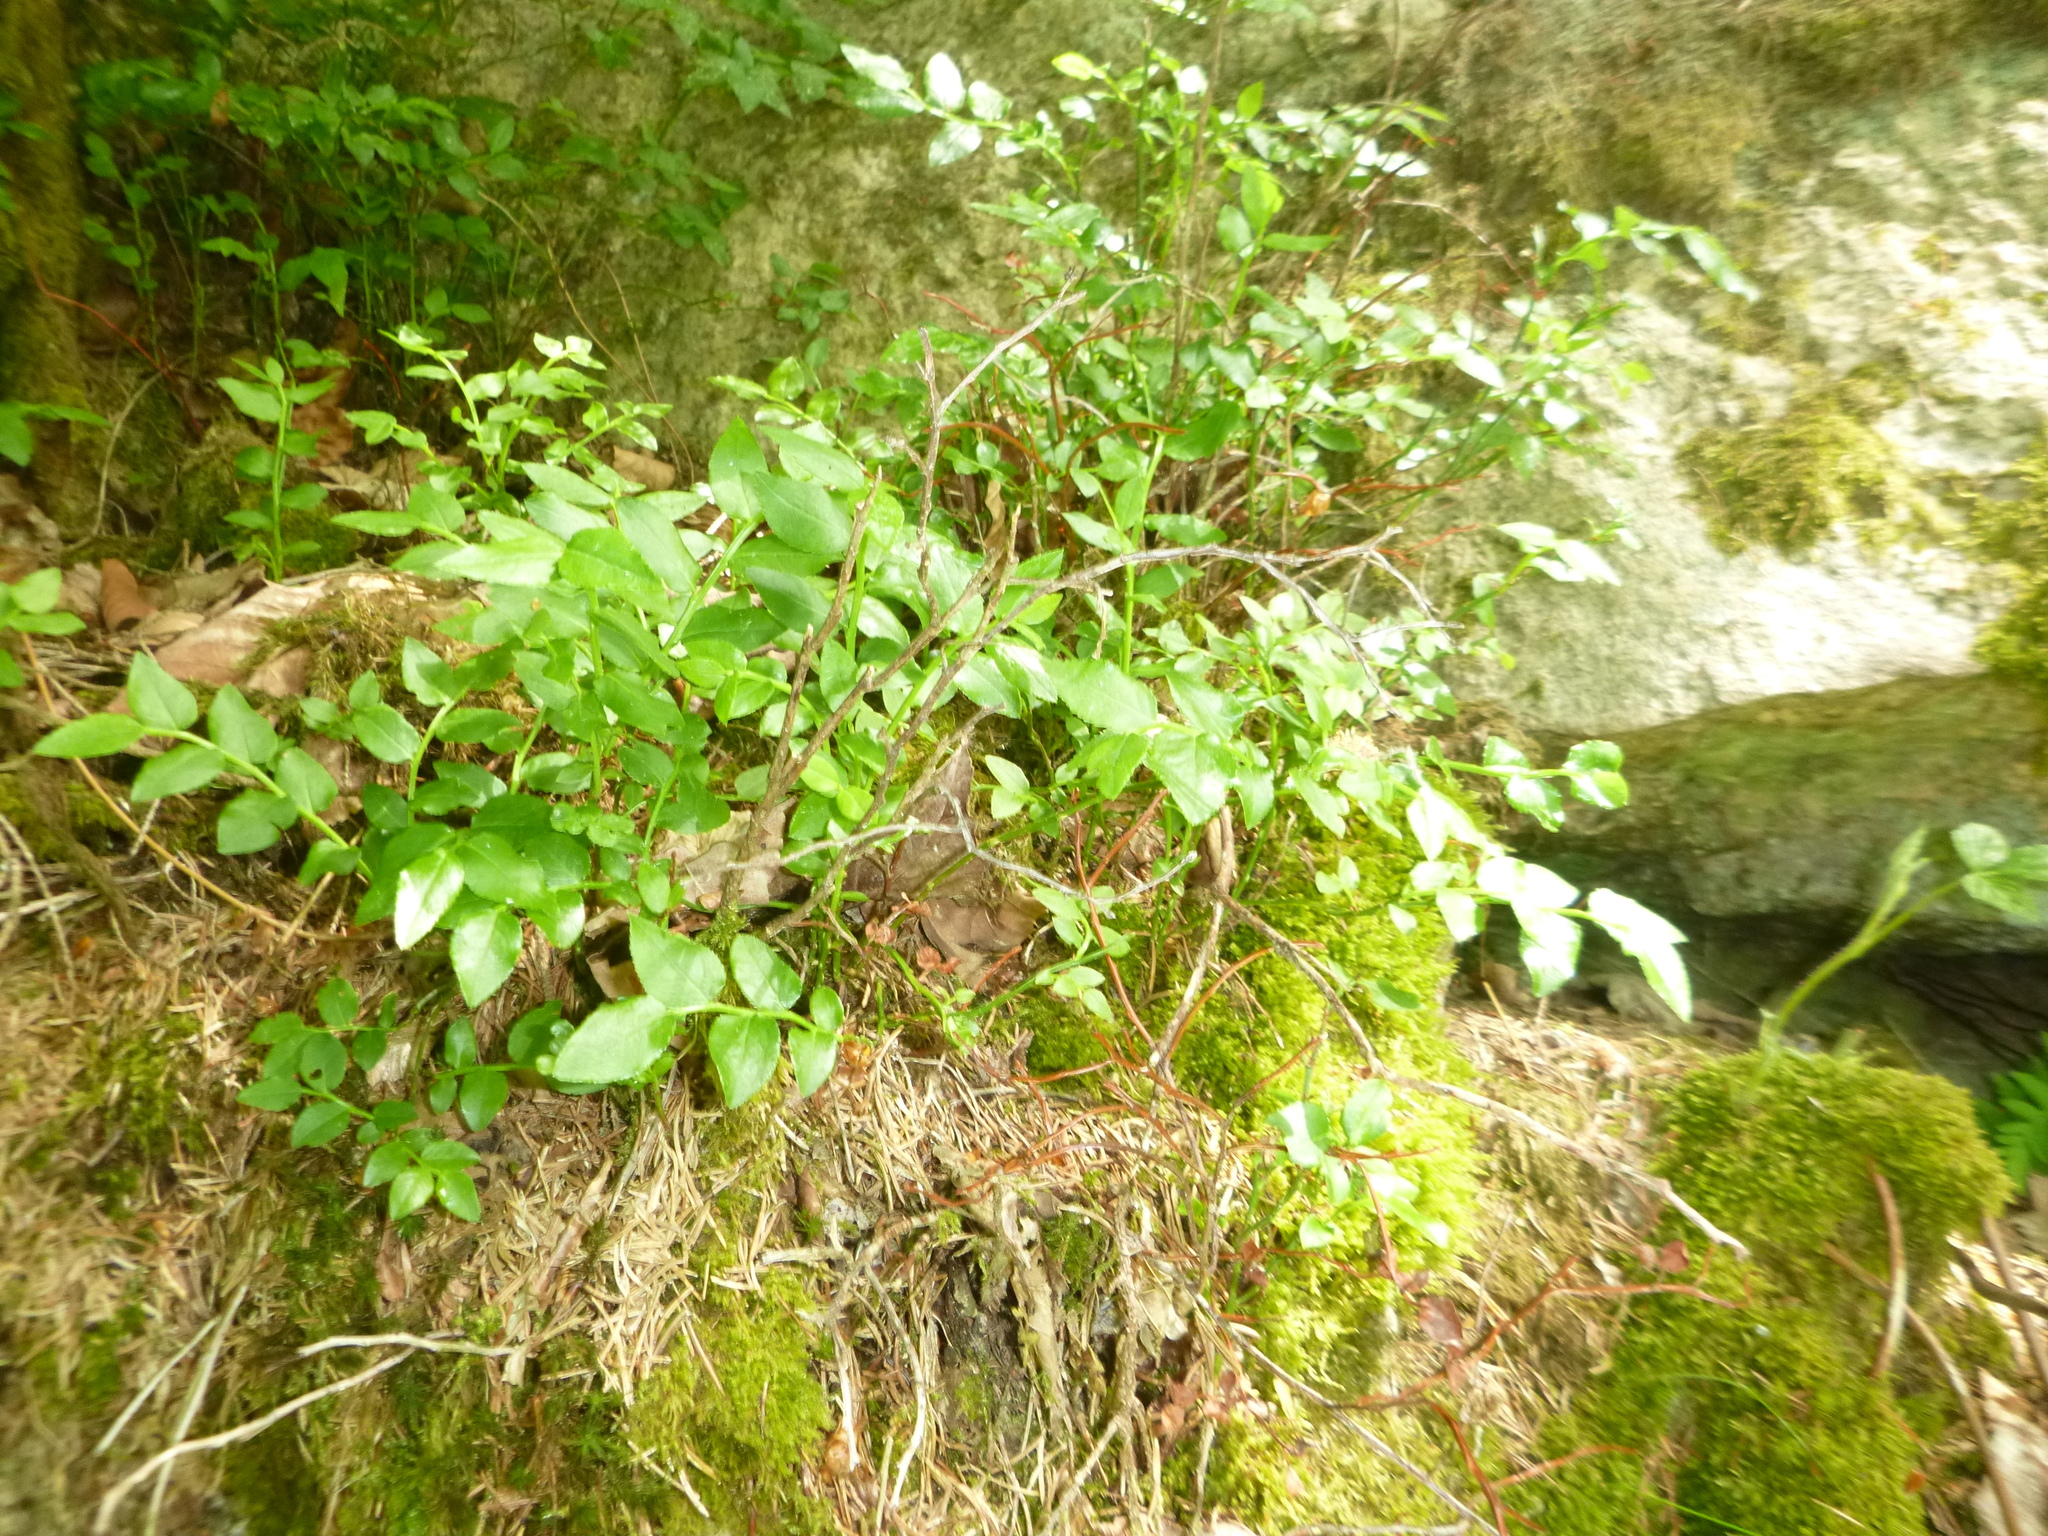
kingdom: Plantae
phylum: Tracheophyta
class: Magnoliopsida
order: Ericales
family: Ericaceae
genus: Vaccinium
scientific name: Vaccinium myrtillus
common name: Bilberry
